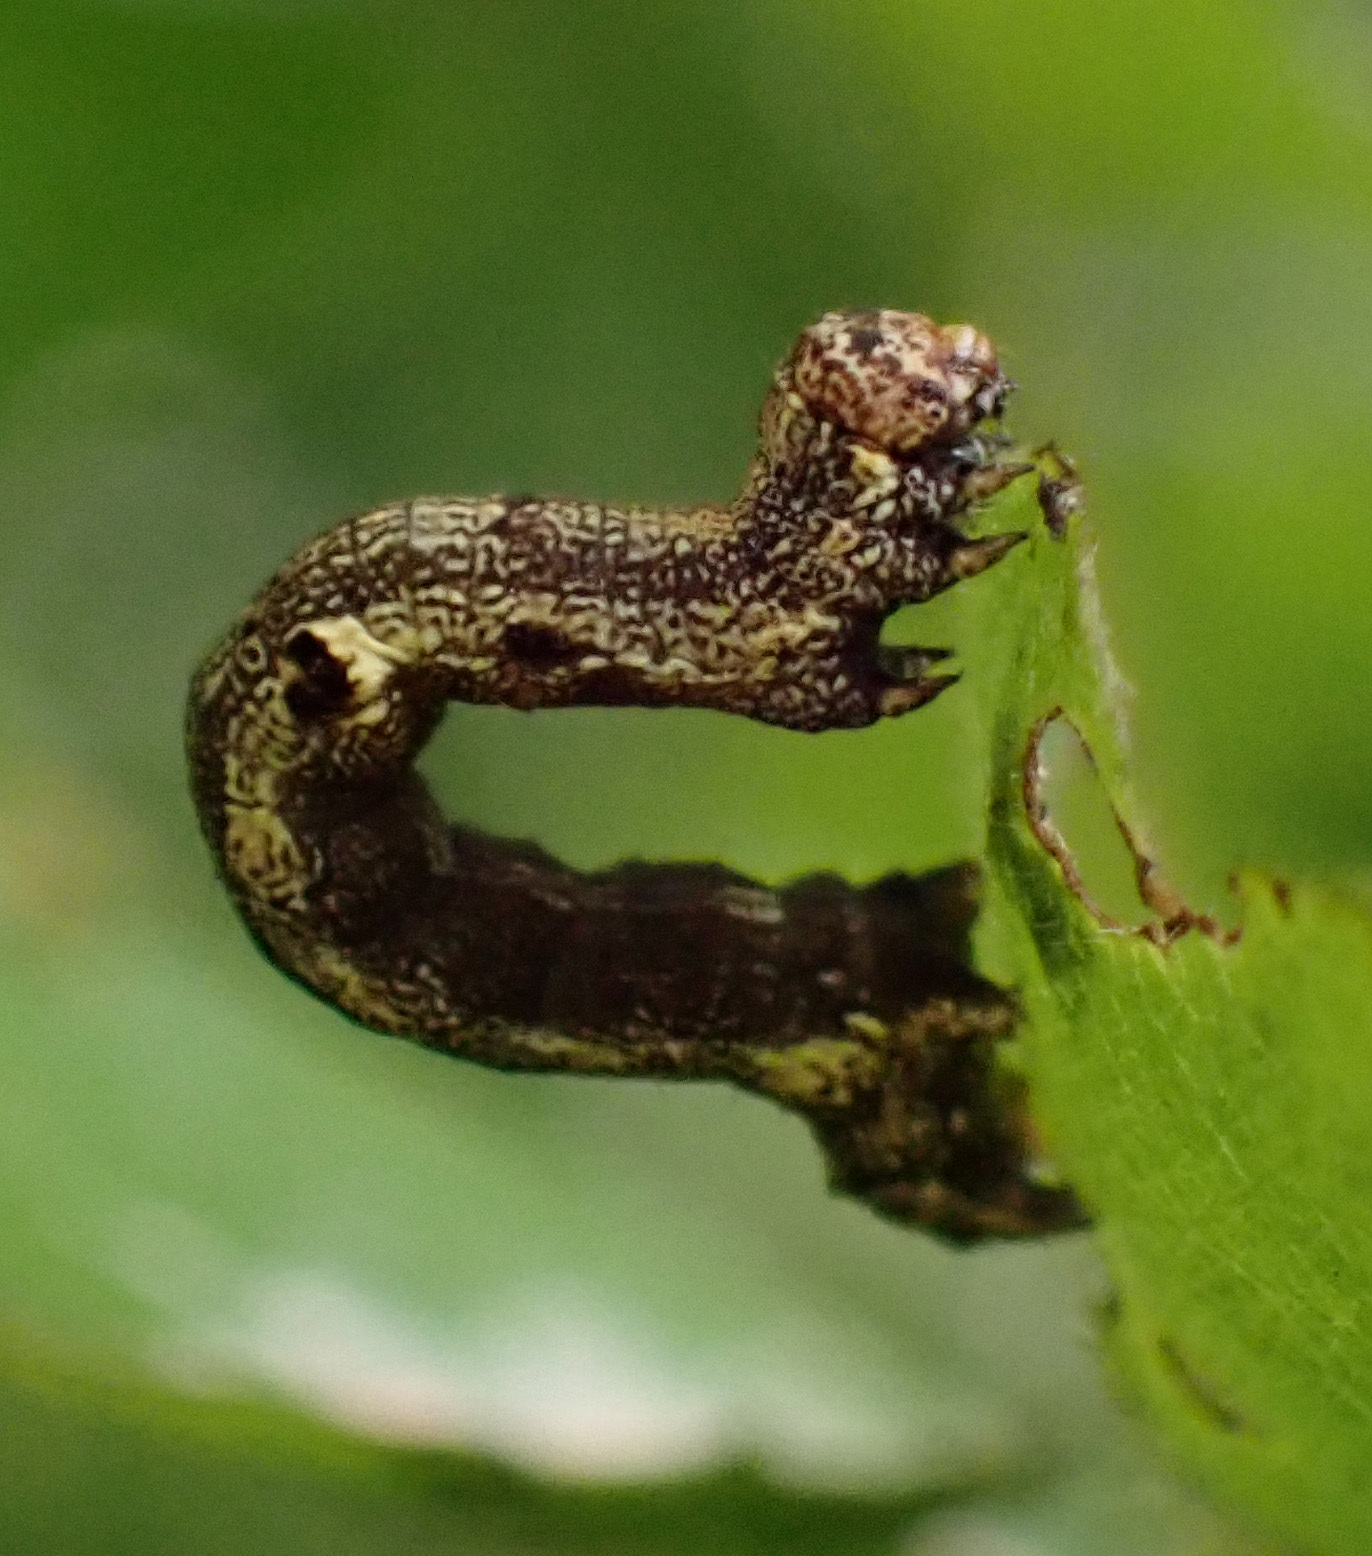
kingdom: Animalia
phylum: Arthropoda
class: Insecta
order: Lepidoptera
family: Geometridae
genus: Colotois
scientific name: Colotois pennaria
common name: Feathered thorn
